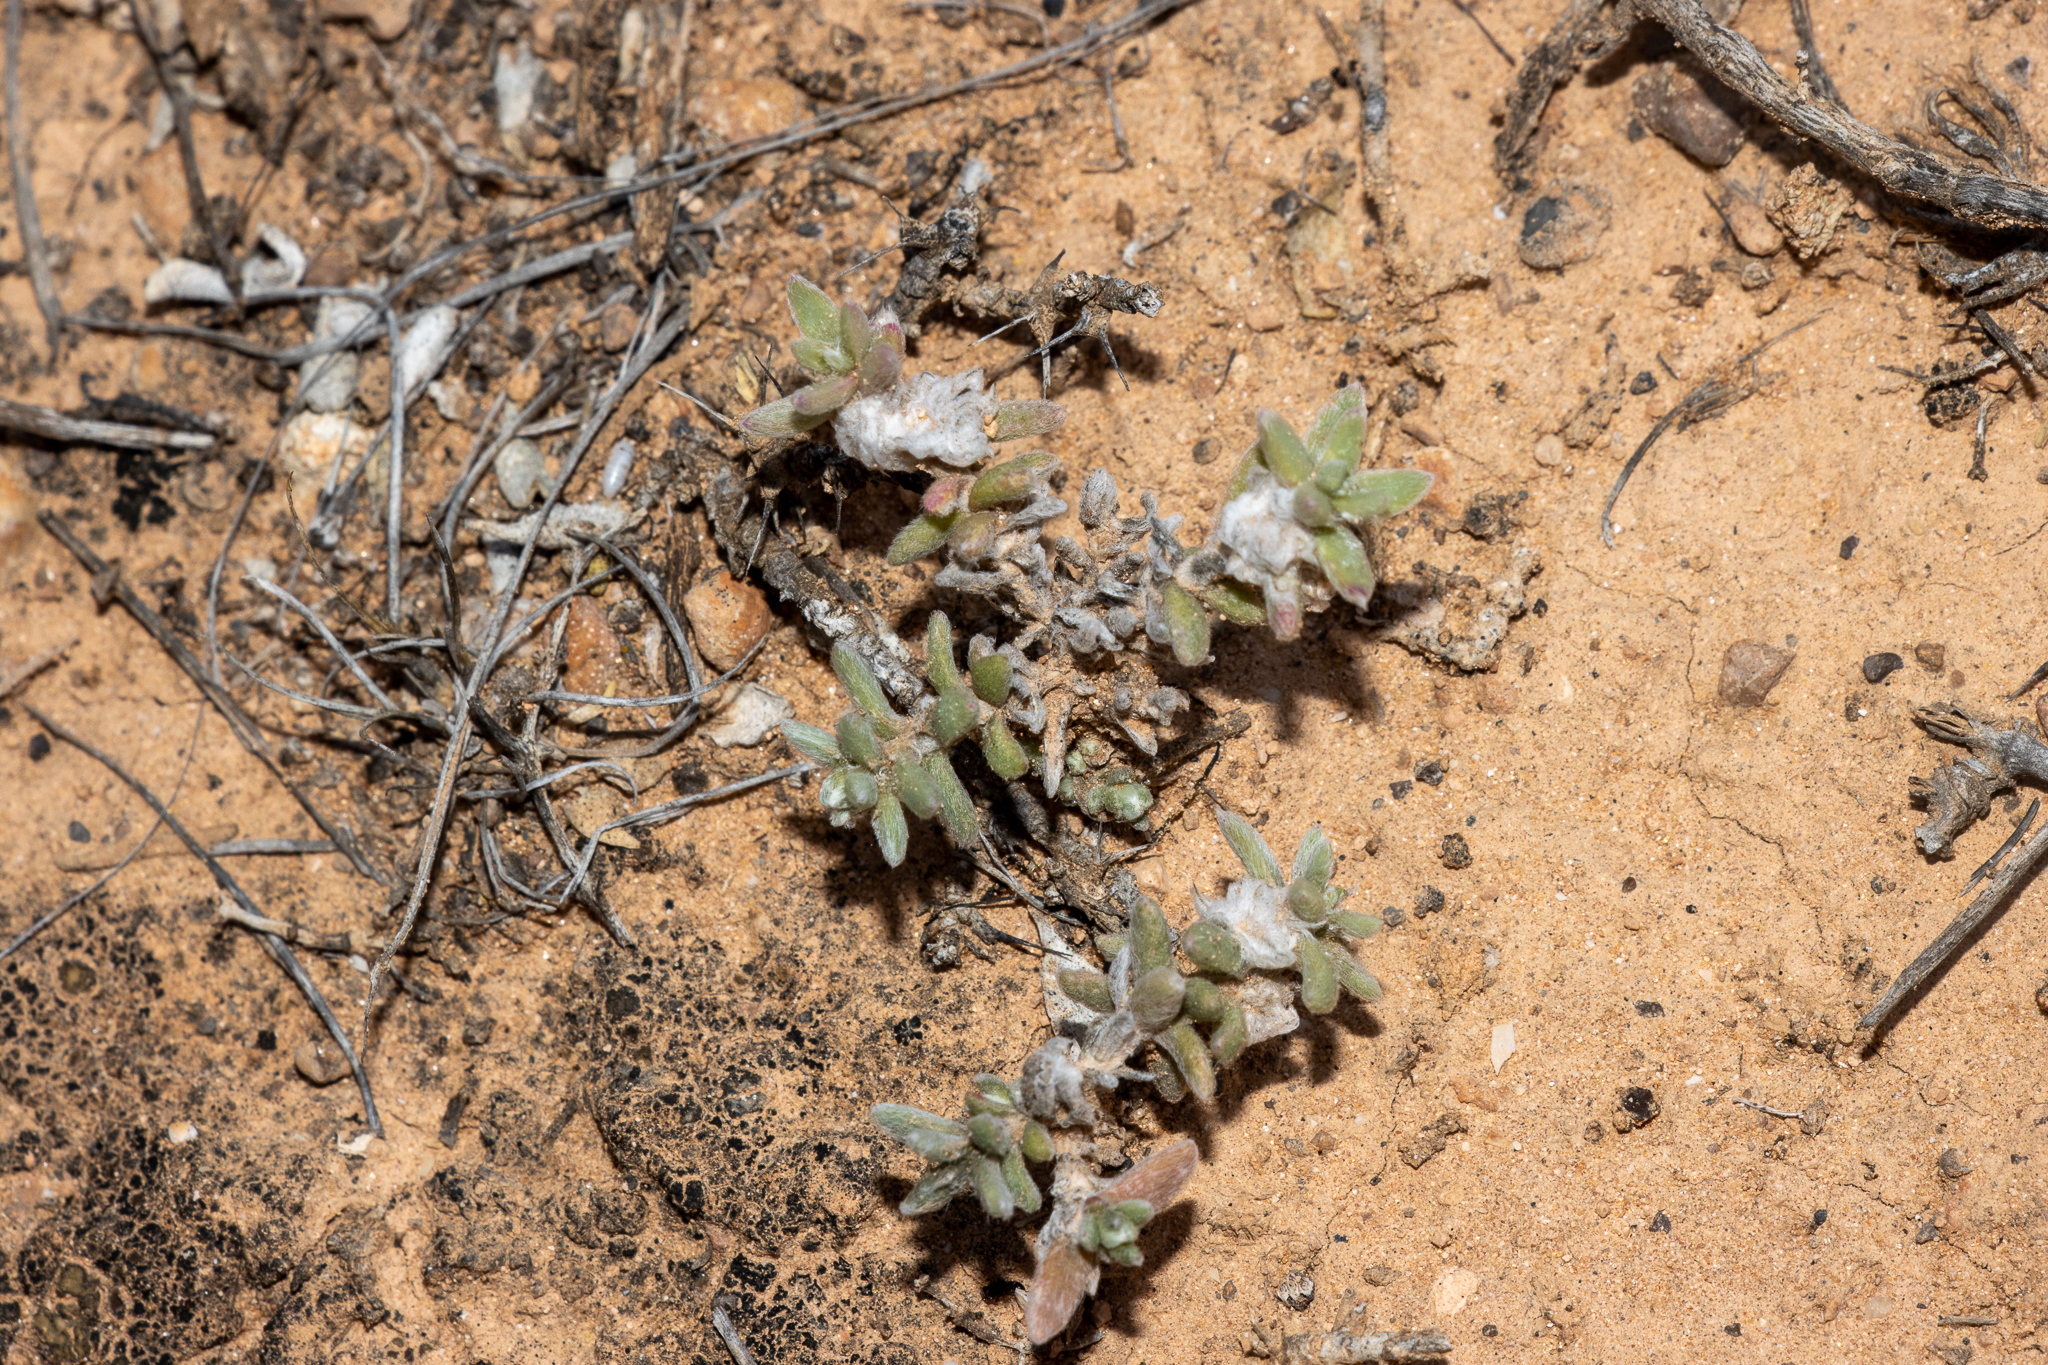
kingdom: Plantae
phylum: Tracheophyta
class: Magnoliopsida
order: Caryophyllales
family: Amaranthaceae
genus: Maireana
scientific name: Maireana sclerolaenoides
